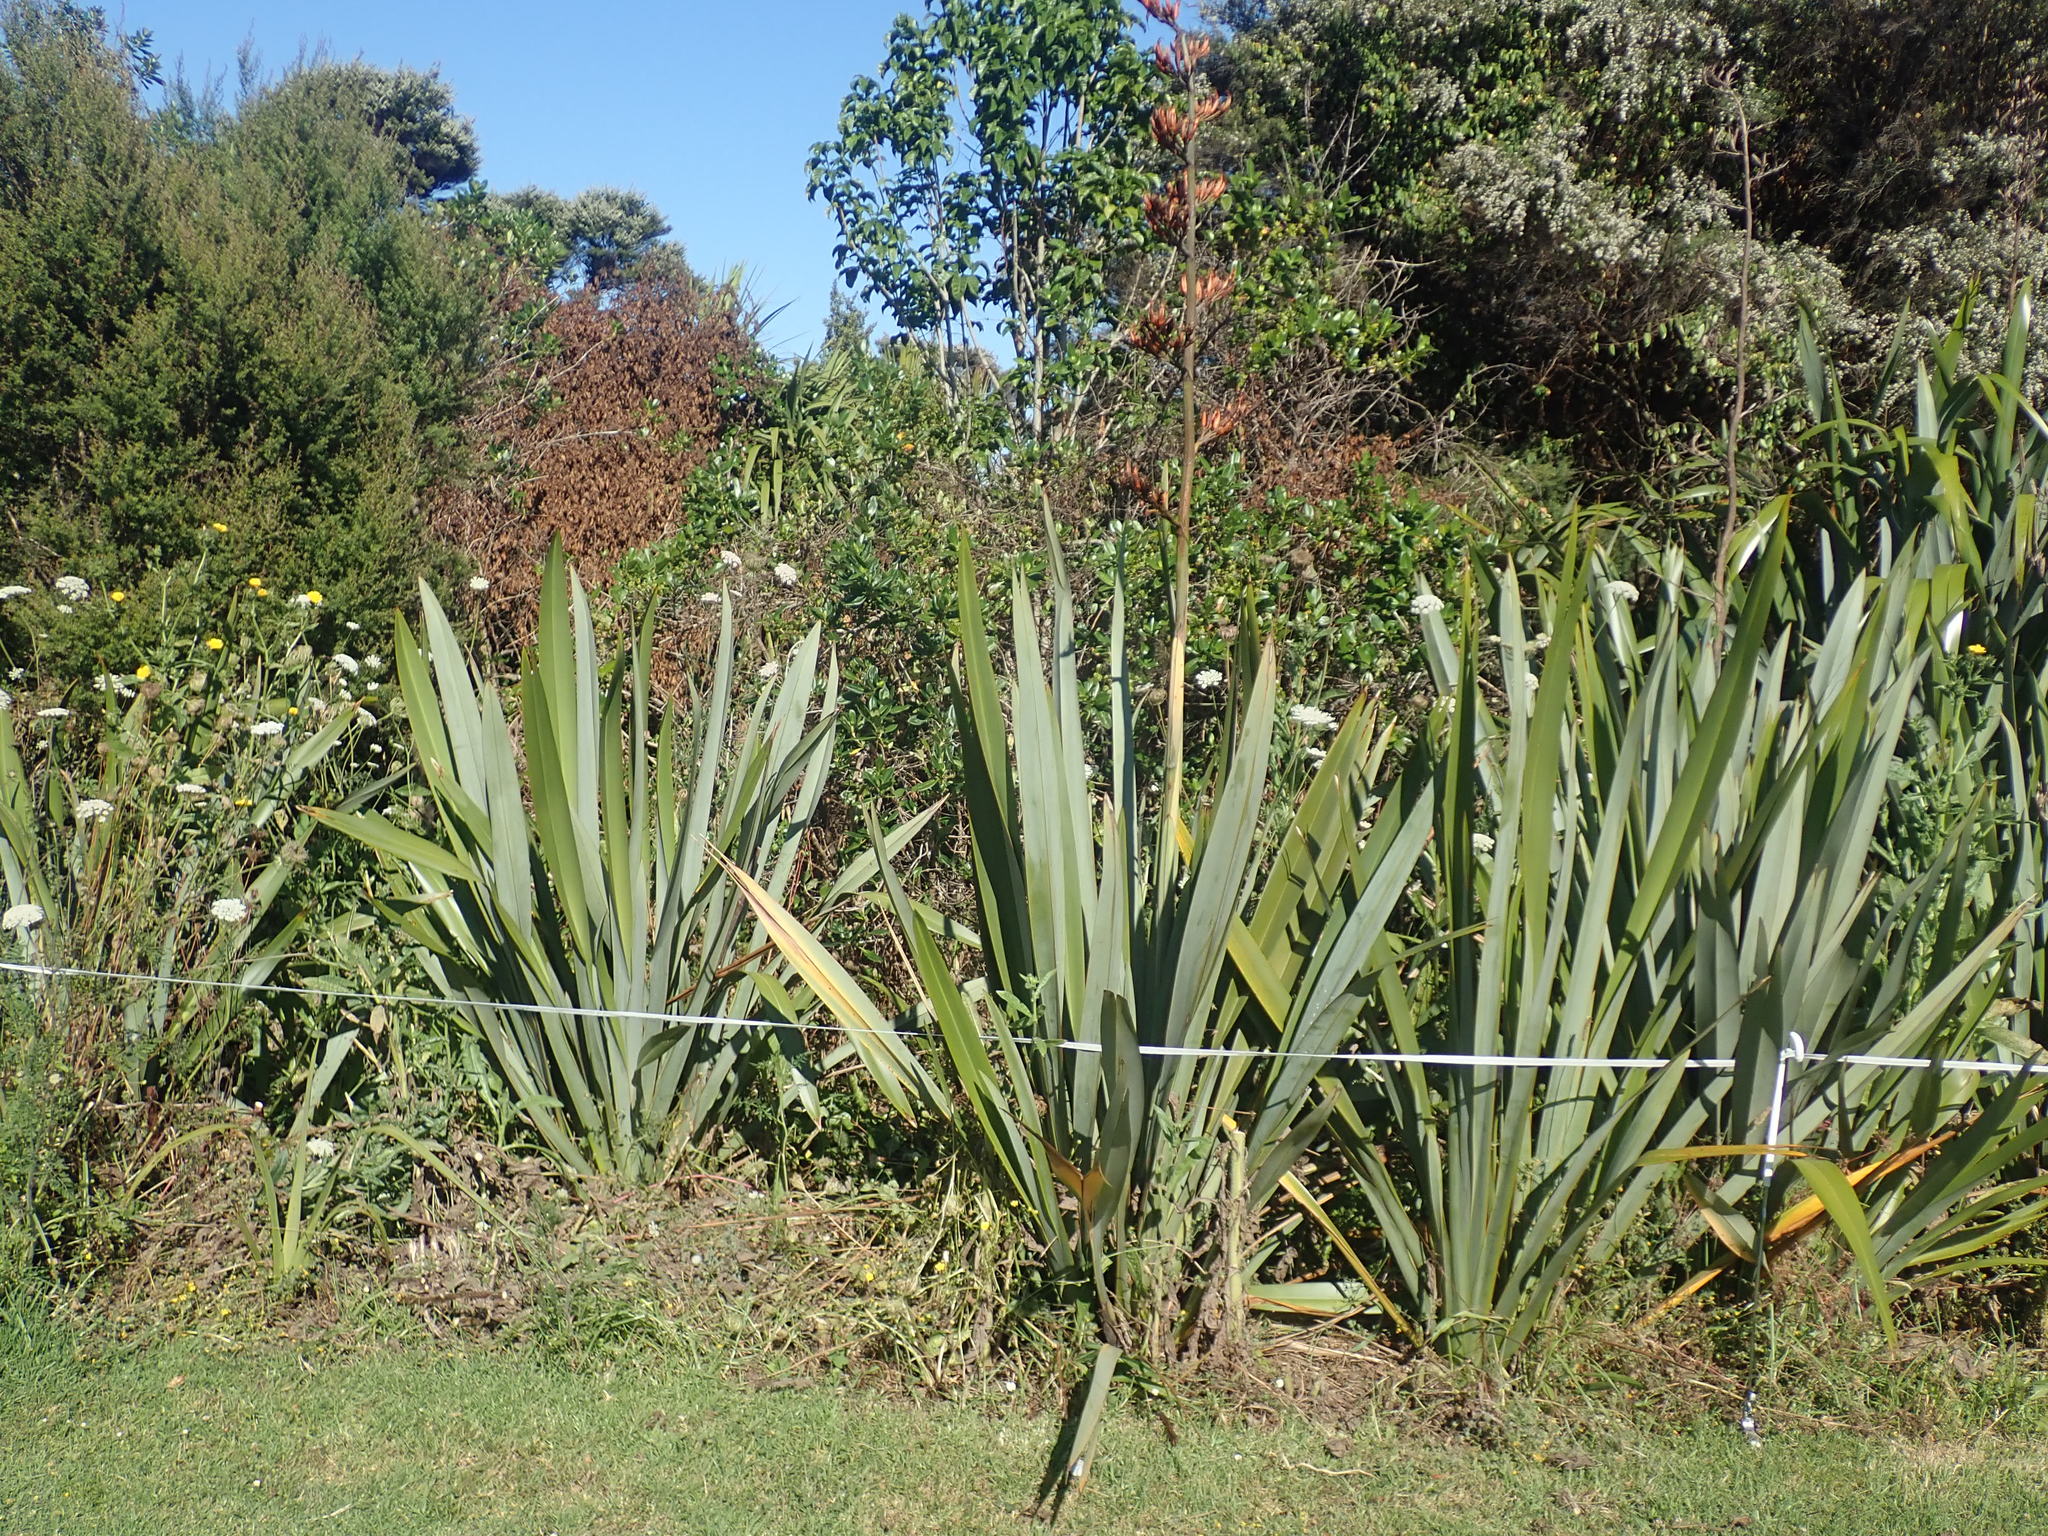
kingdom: Plantae
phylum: Tracheophyta
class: Magnoliopsida
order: Asterales
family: Asteraceae
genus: Helminthotheca
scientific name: Helminthotheca echioides
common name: Ox-tongue
